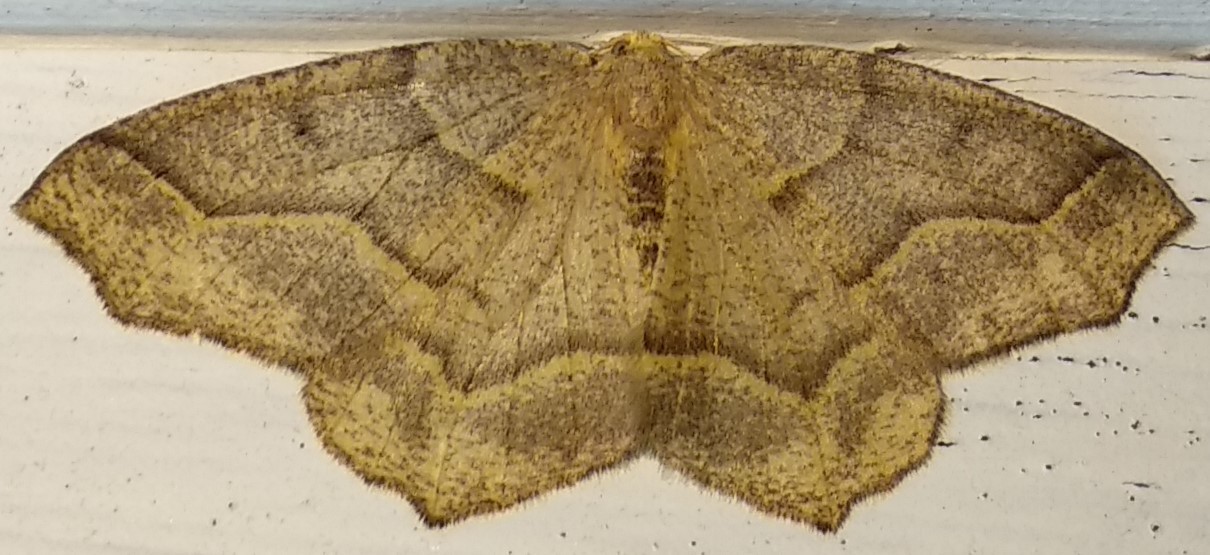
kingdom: Animalia
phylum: Arthropoda
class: Insecta
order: Lepidoptera
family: Geometridae
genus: Lambdina
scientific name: Lambdina fiscellaria
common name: Hemlock looper
